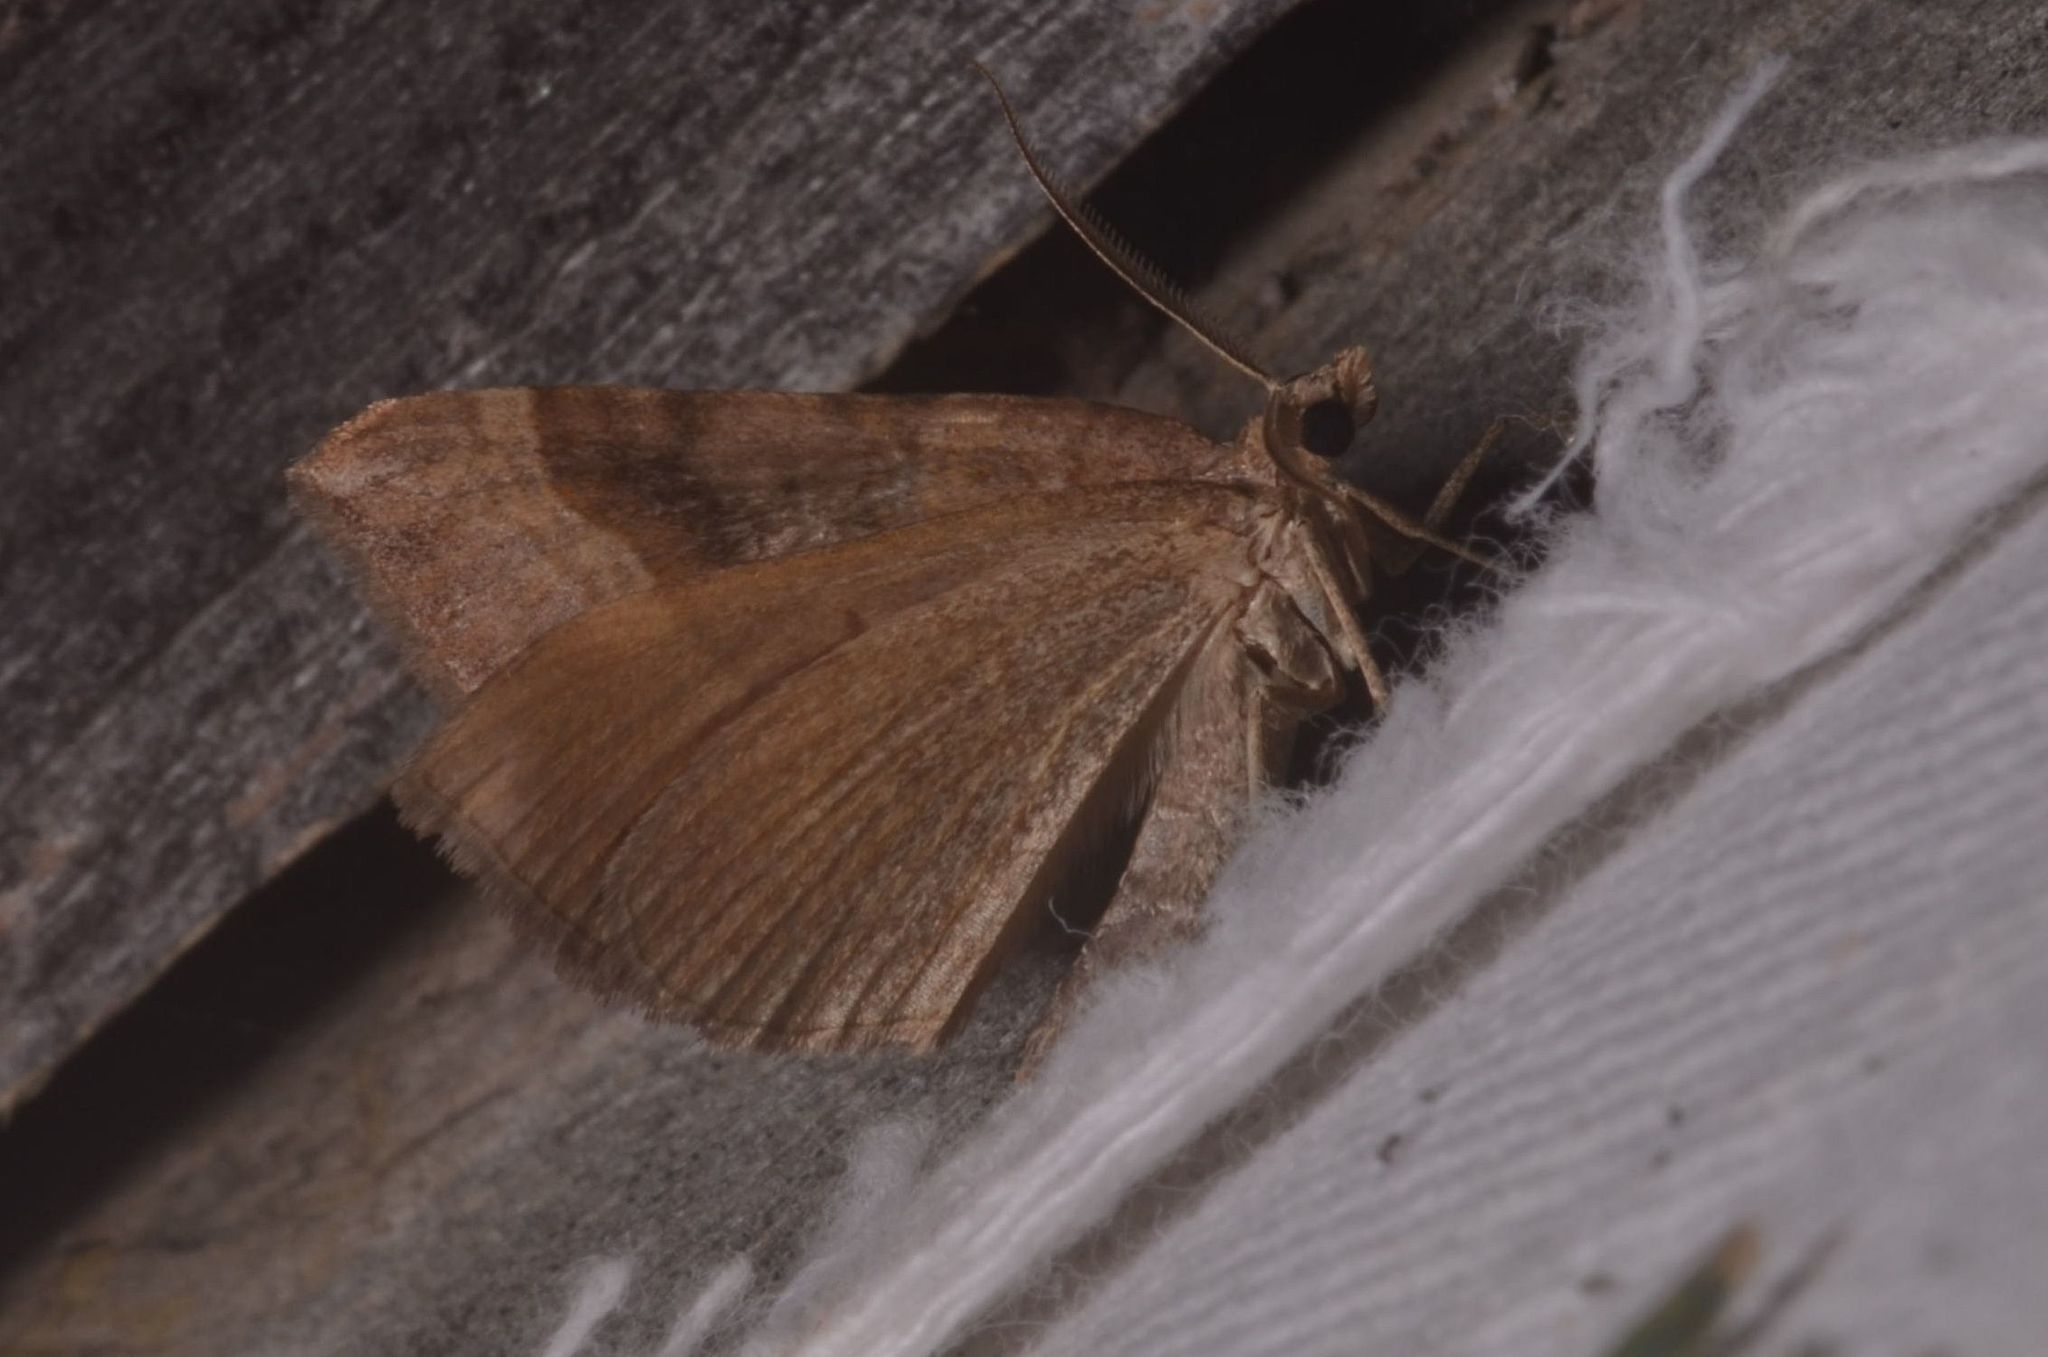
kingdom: Animalia
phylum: Arthropoda
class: Insecta
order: Lepidoptera
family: Geometridae
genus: Scotopteryx
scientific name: Scotopteryx chenopodiata
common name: Shaded broad-bar
